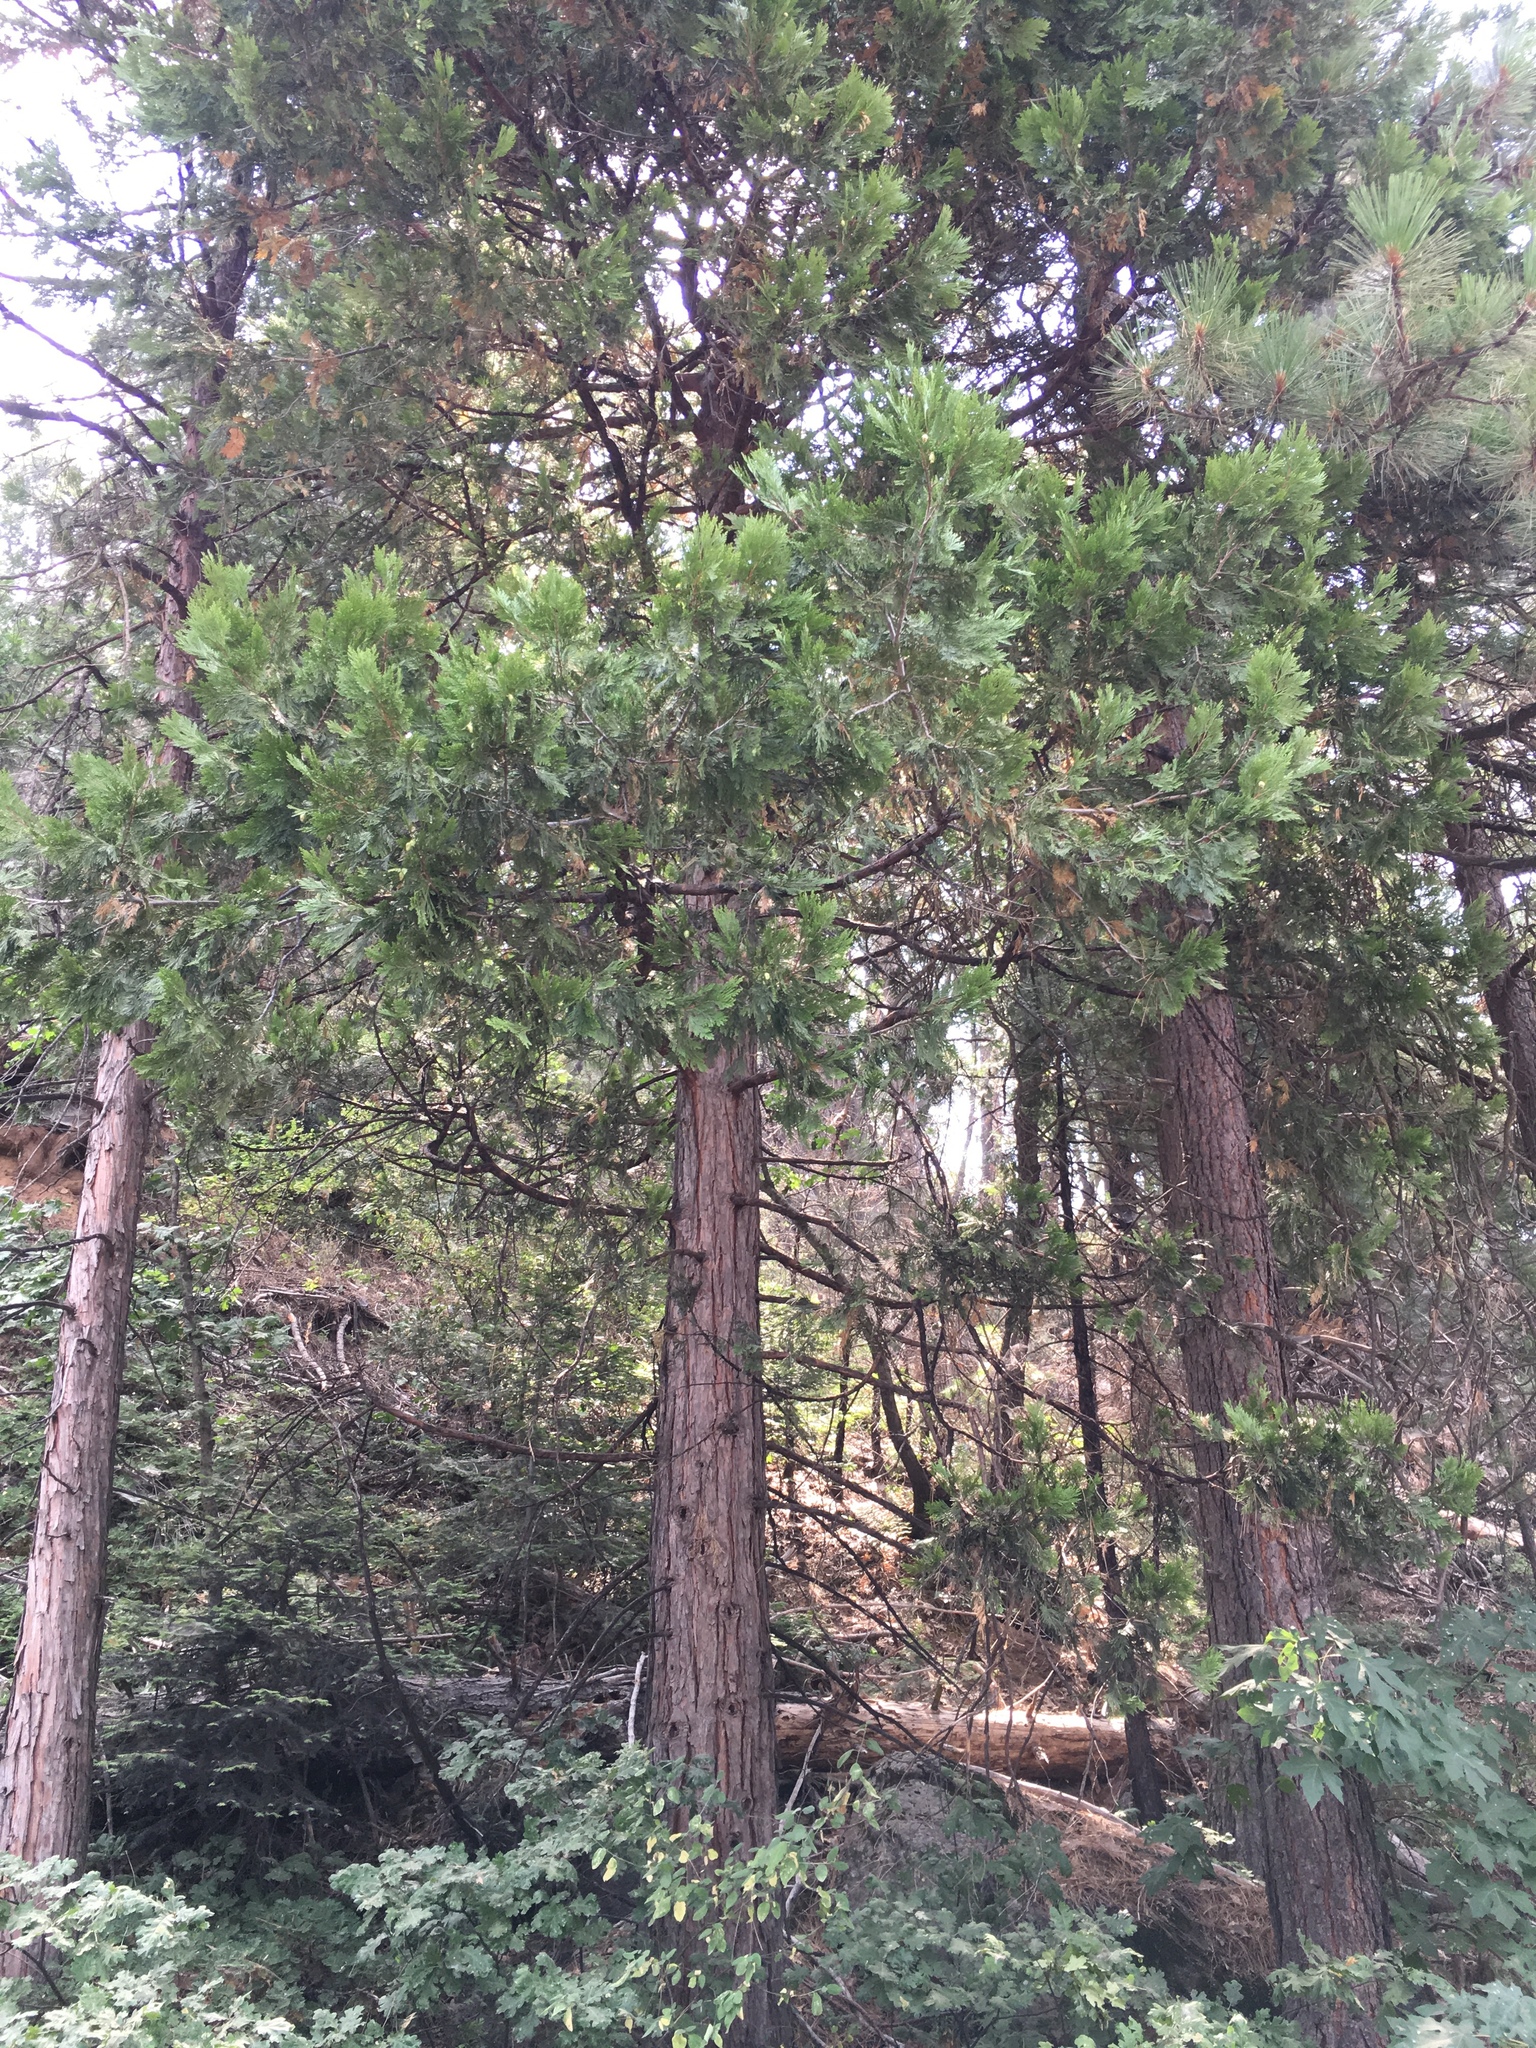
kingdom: Plantae
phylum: Tracheophyta
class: Pinopsida
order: Pinales
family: Cupressaceae
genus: Calocedrus
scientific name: Calocedrus decurrens
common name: Californian incense-cedar
